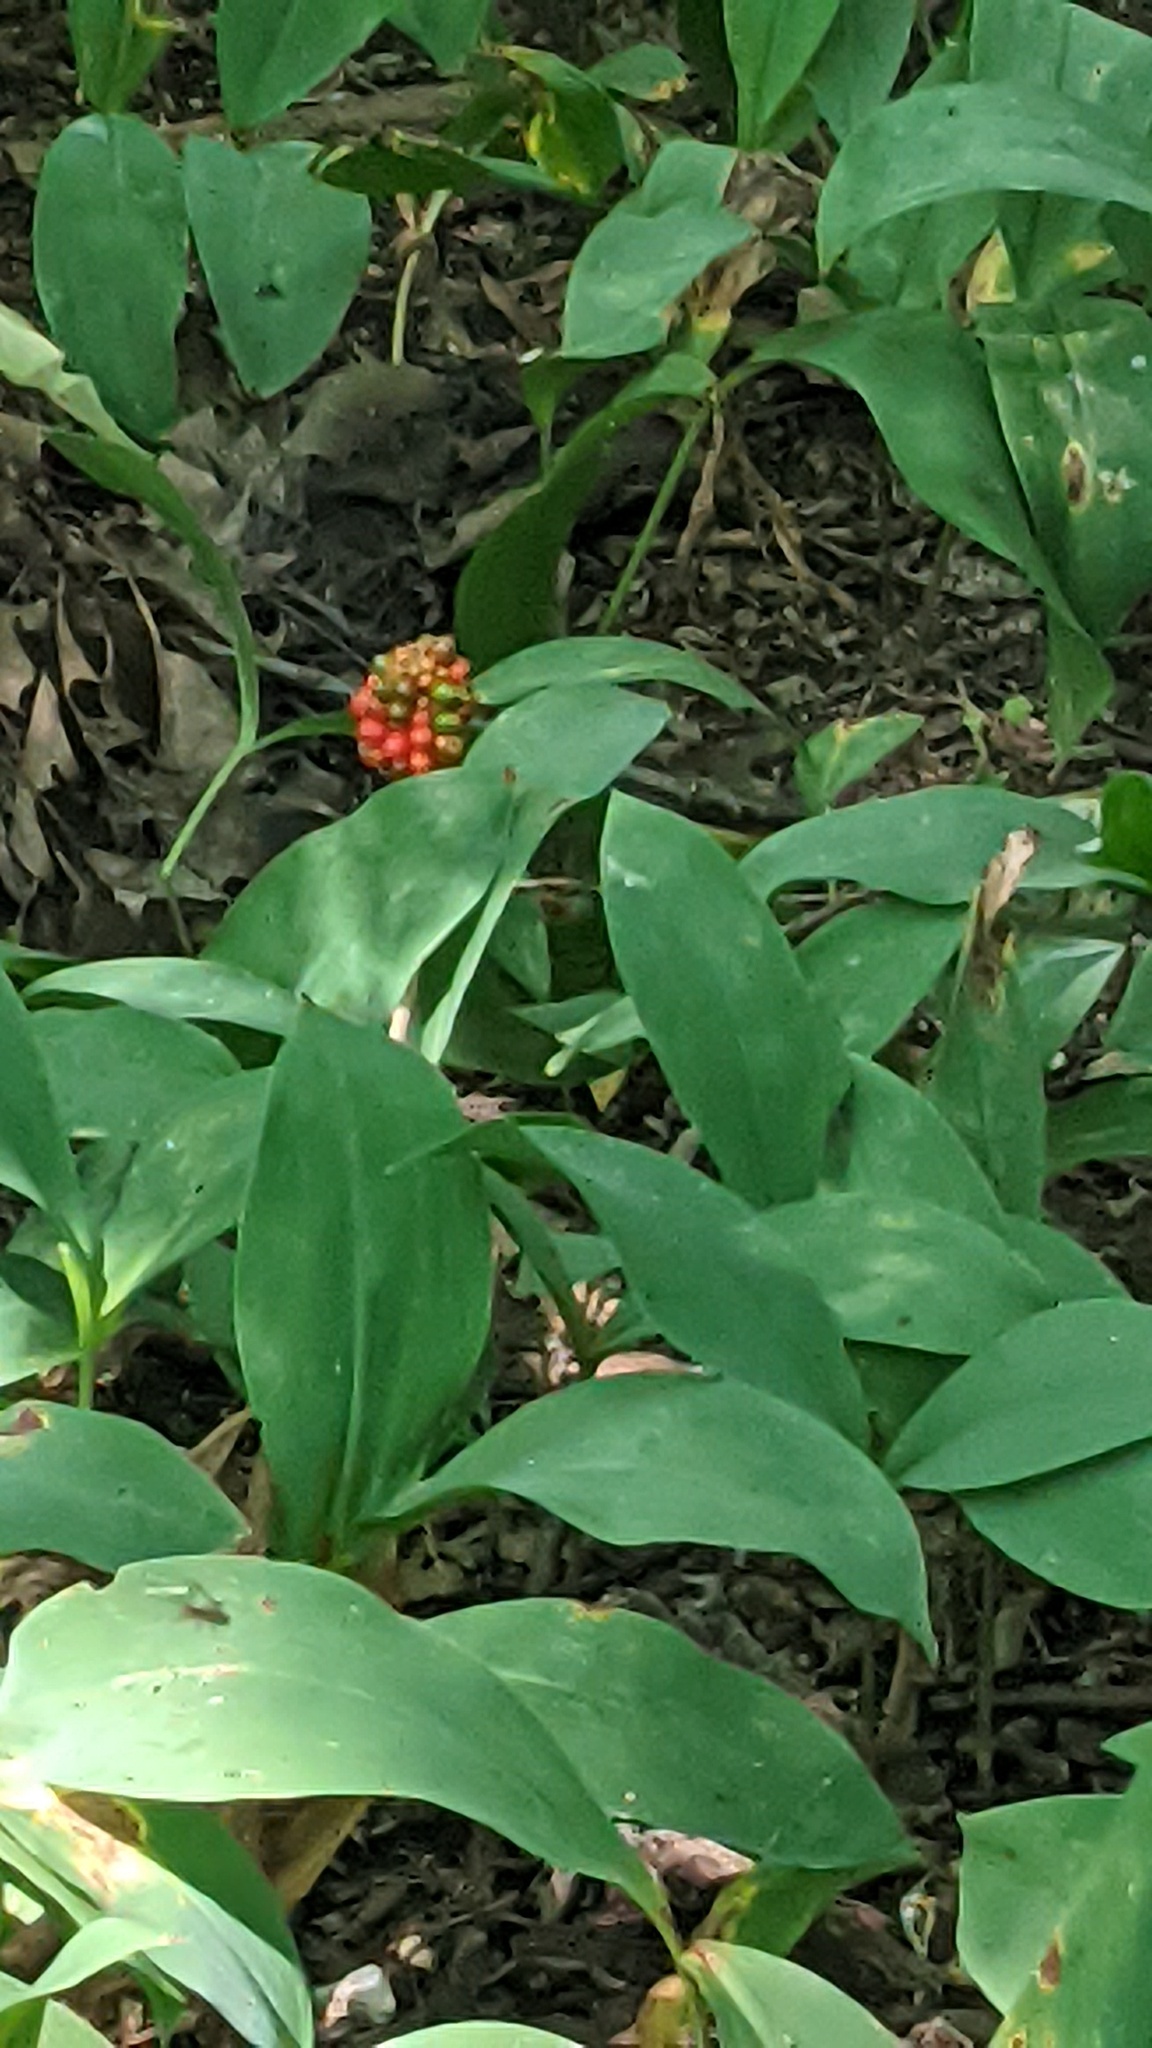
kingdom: Plantae
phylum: Tracheophyta
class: Liliopsida
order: Alismatales
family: Araceae
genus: Arisaema
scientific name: Arisaema triphyllum
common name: Jack-in-the-pulpit
